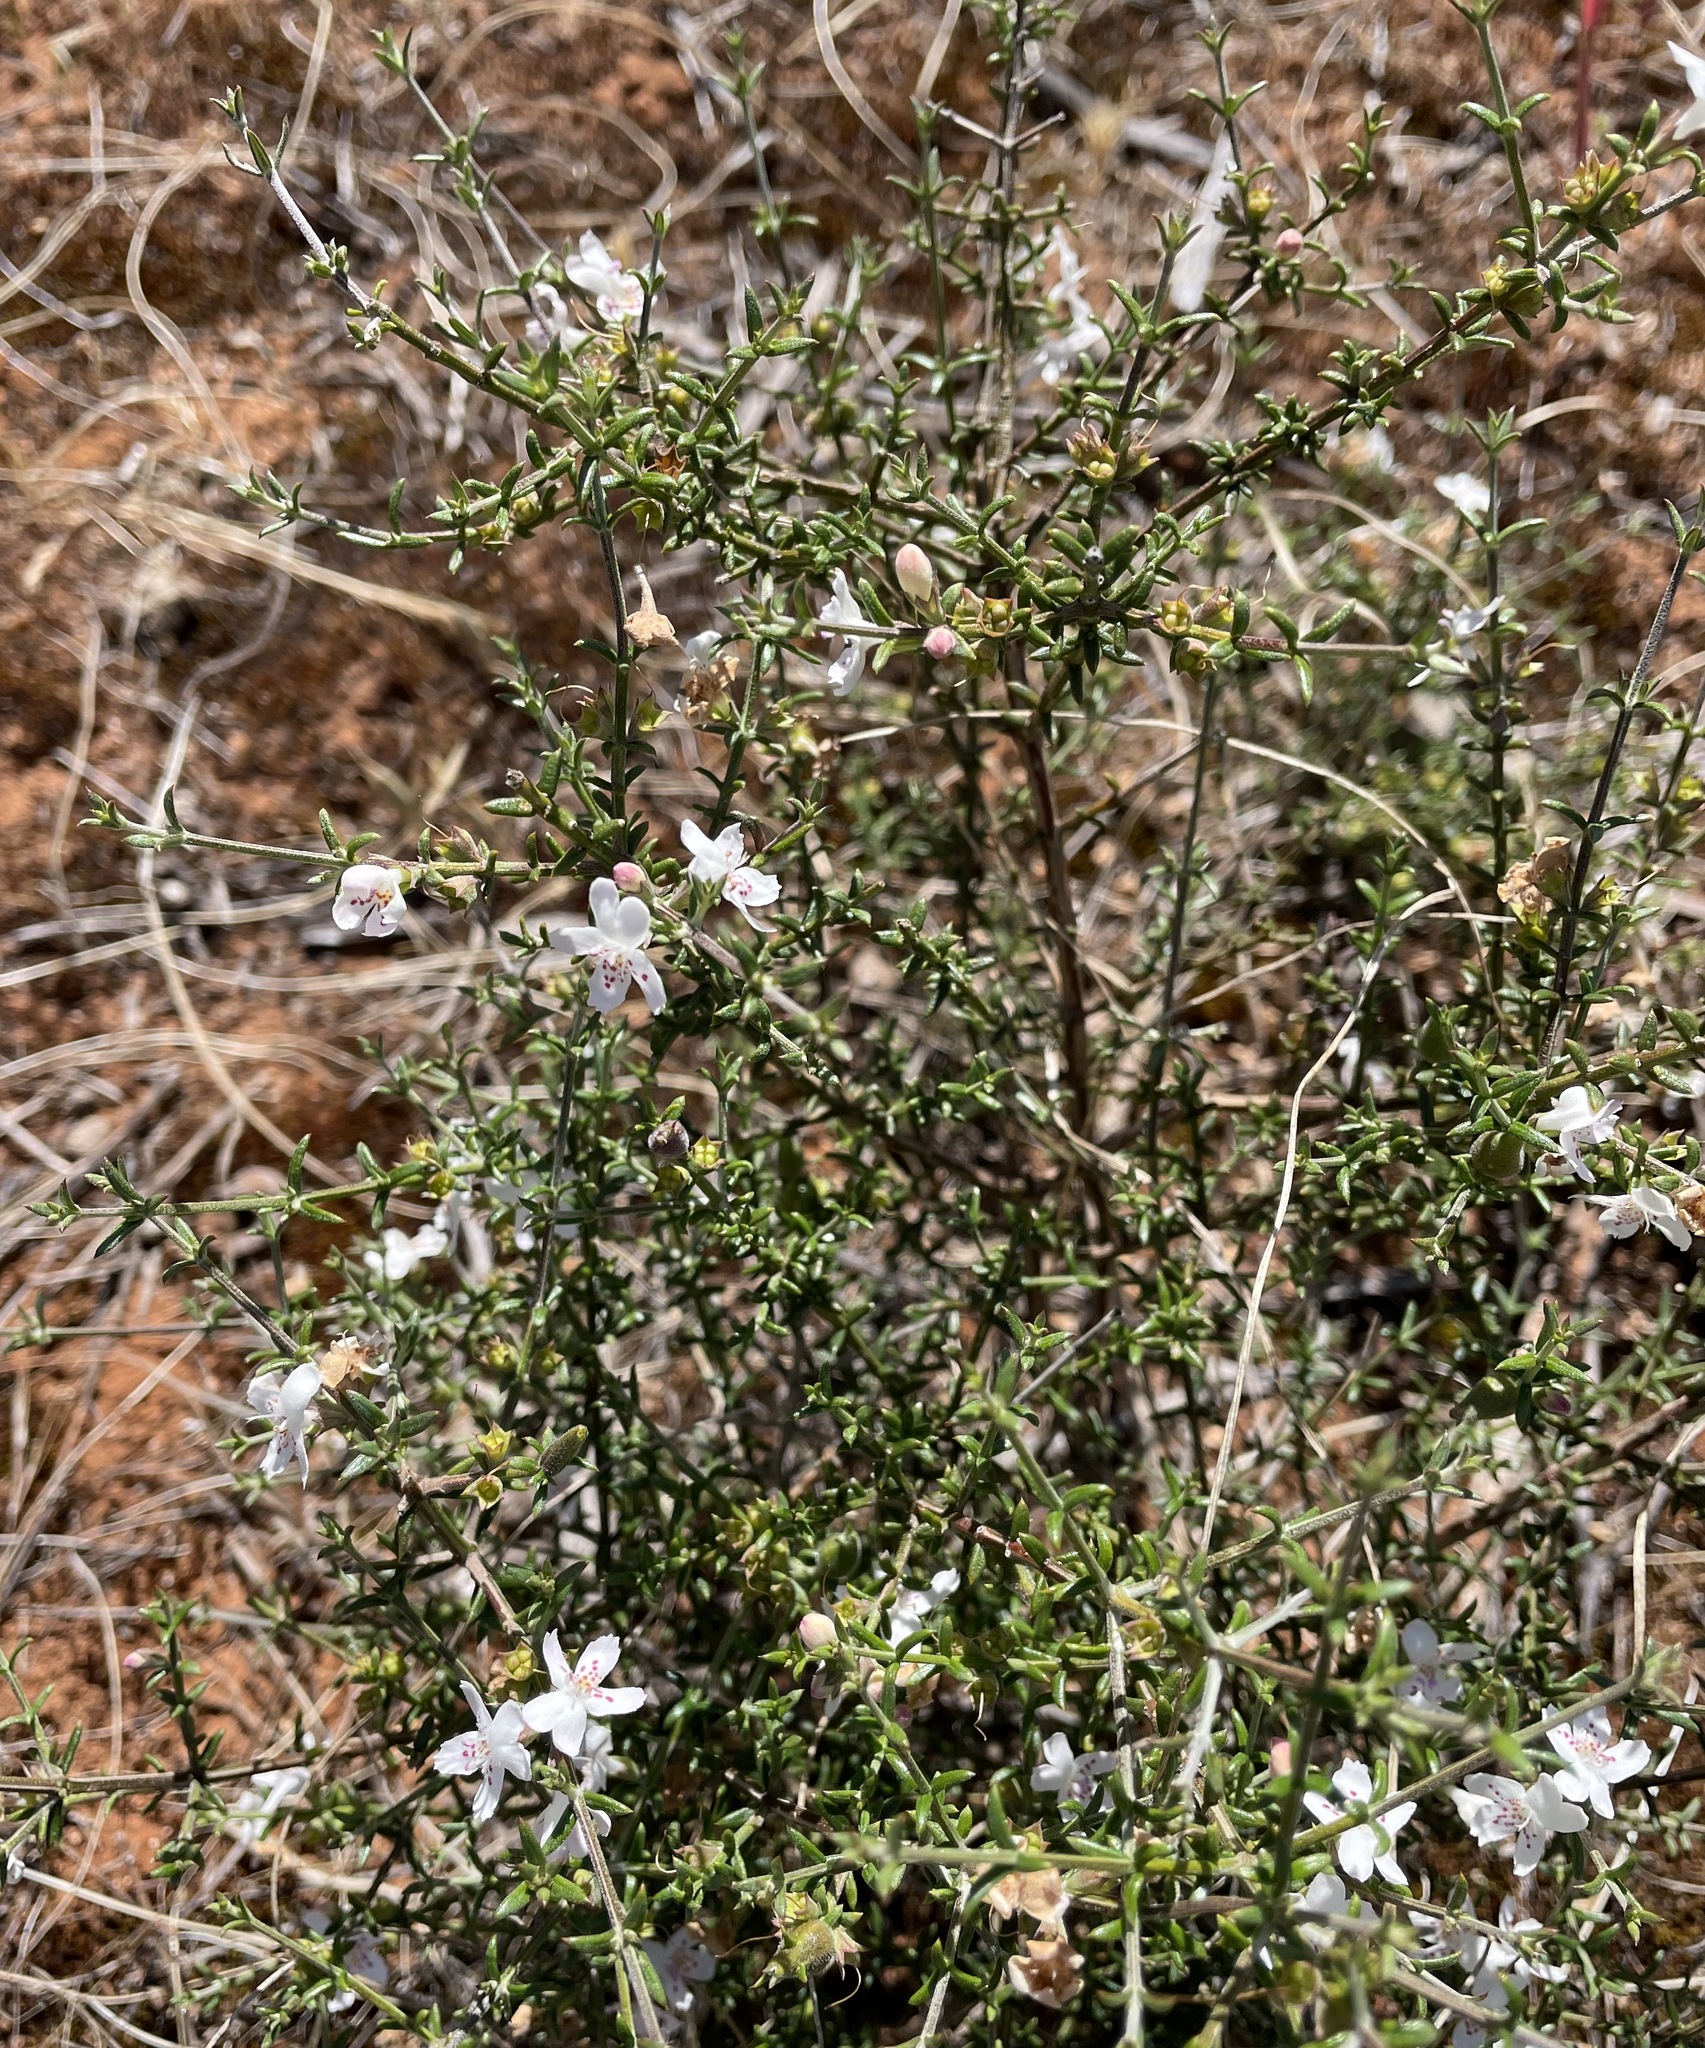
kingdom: Plantae
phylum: Tracheophyta
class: Magnoliopsida
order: Lamiales
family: Lamiaceae
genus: Westringia
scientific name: Westringia rigida
